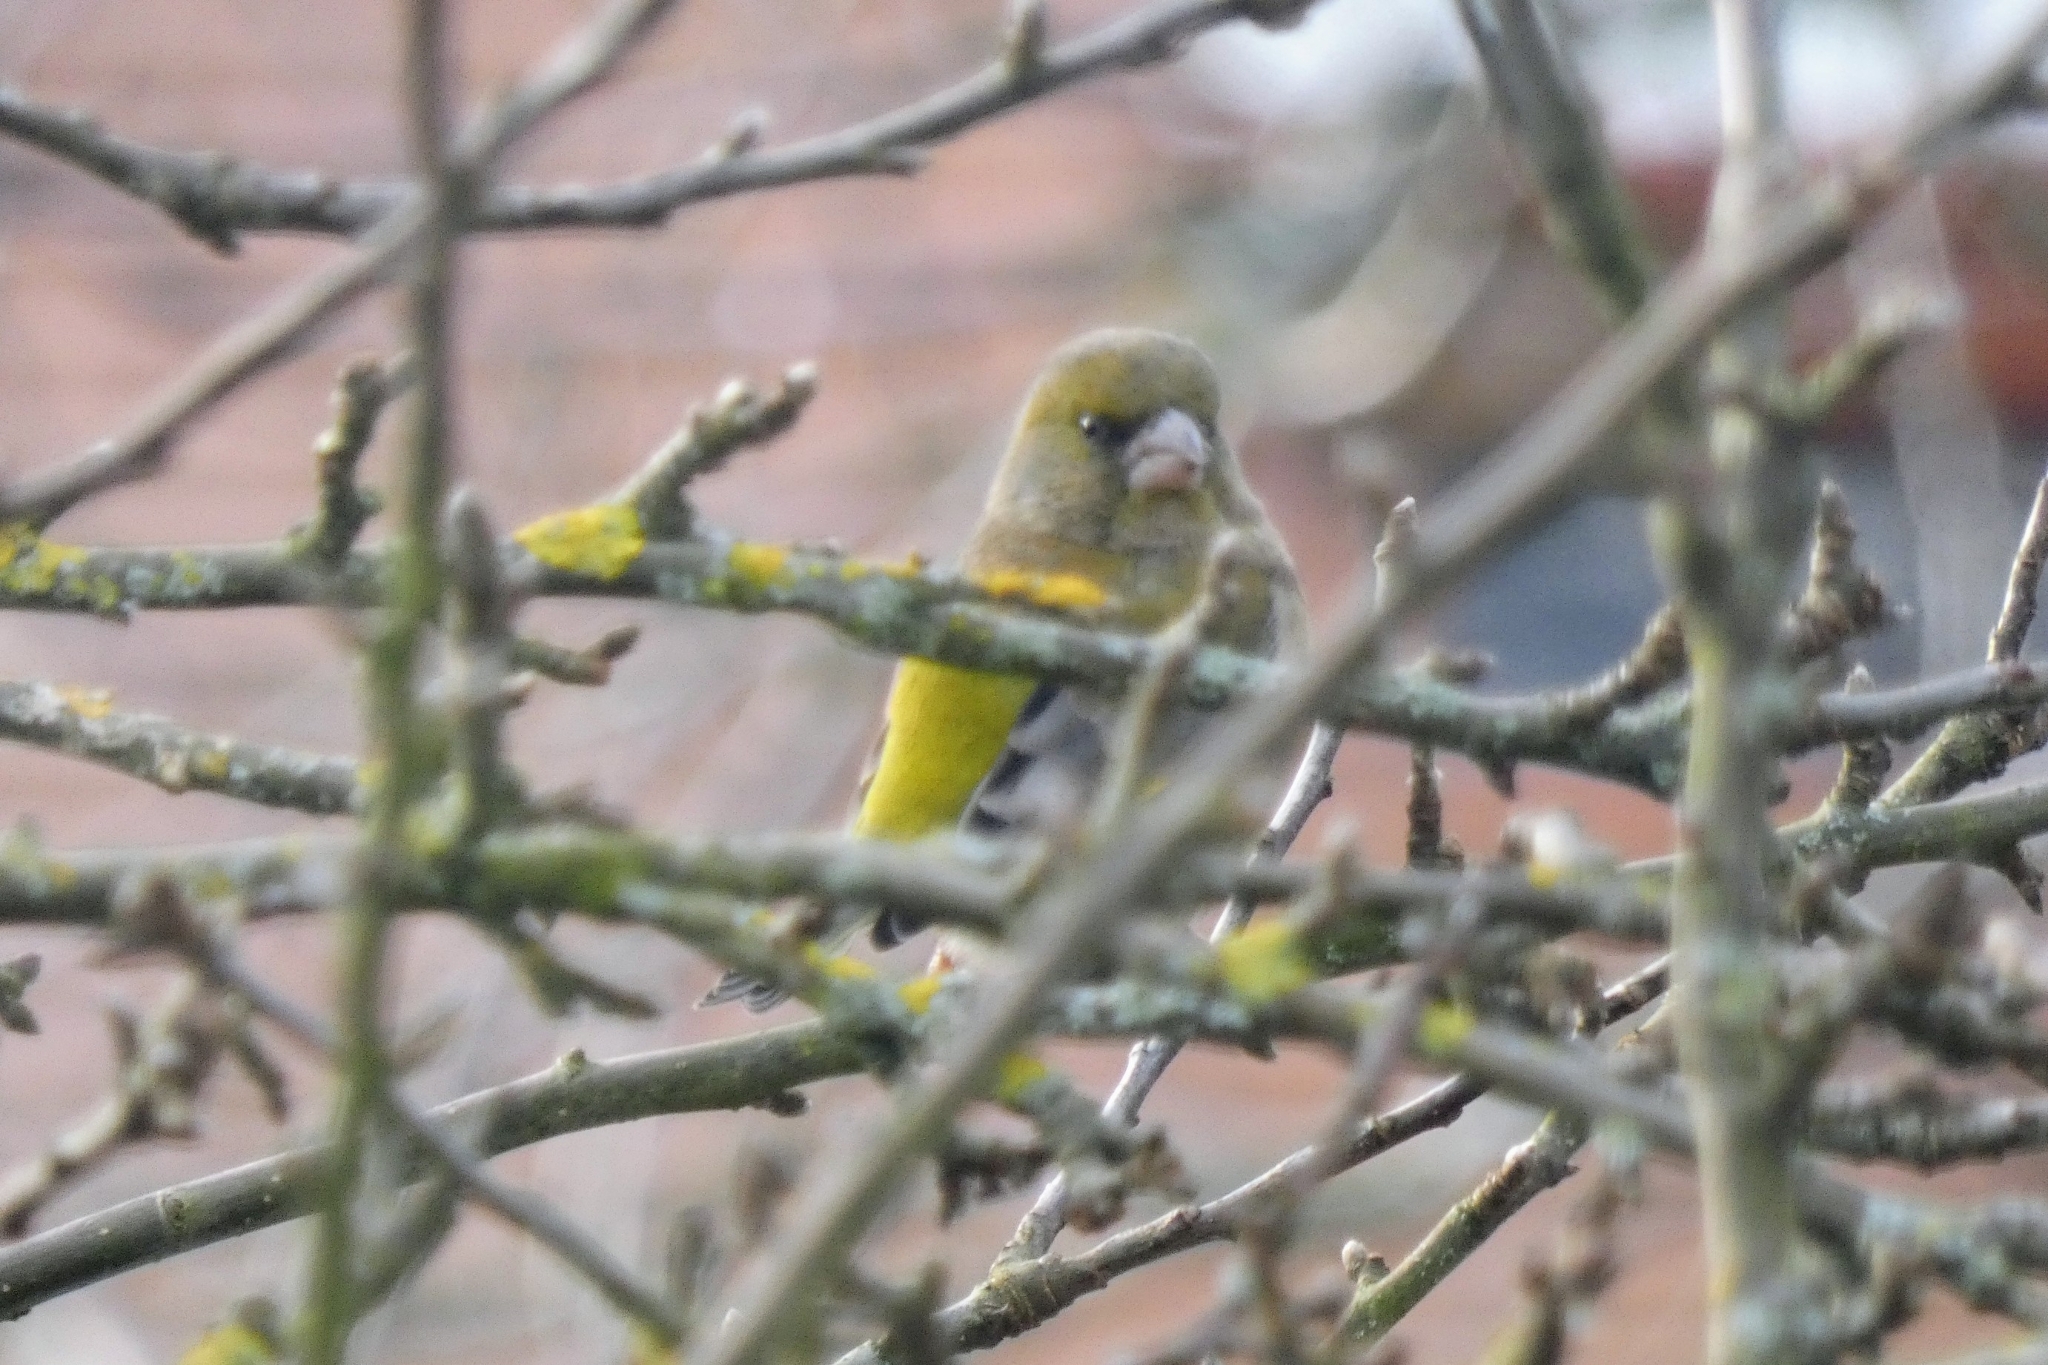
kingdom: Plantae
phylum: Tracheophyta
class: Liliopsida
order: Poales
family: Poaceae
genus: Chloris
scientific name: Chloris chloris
